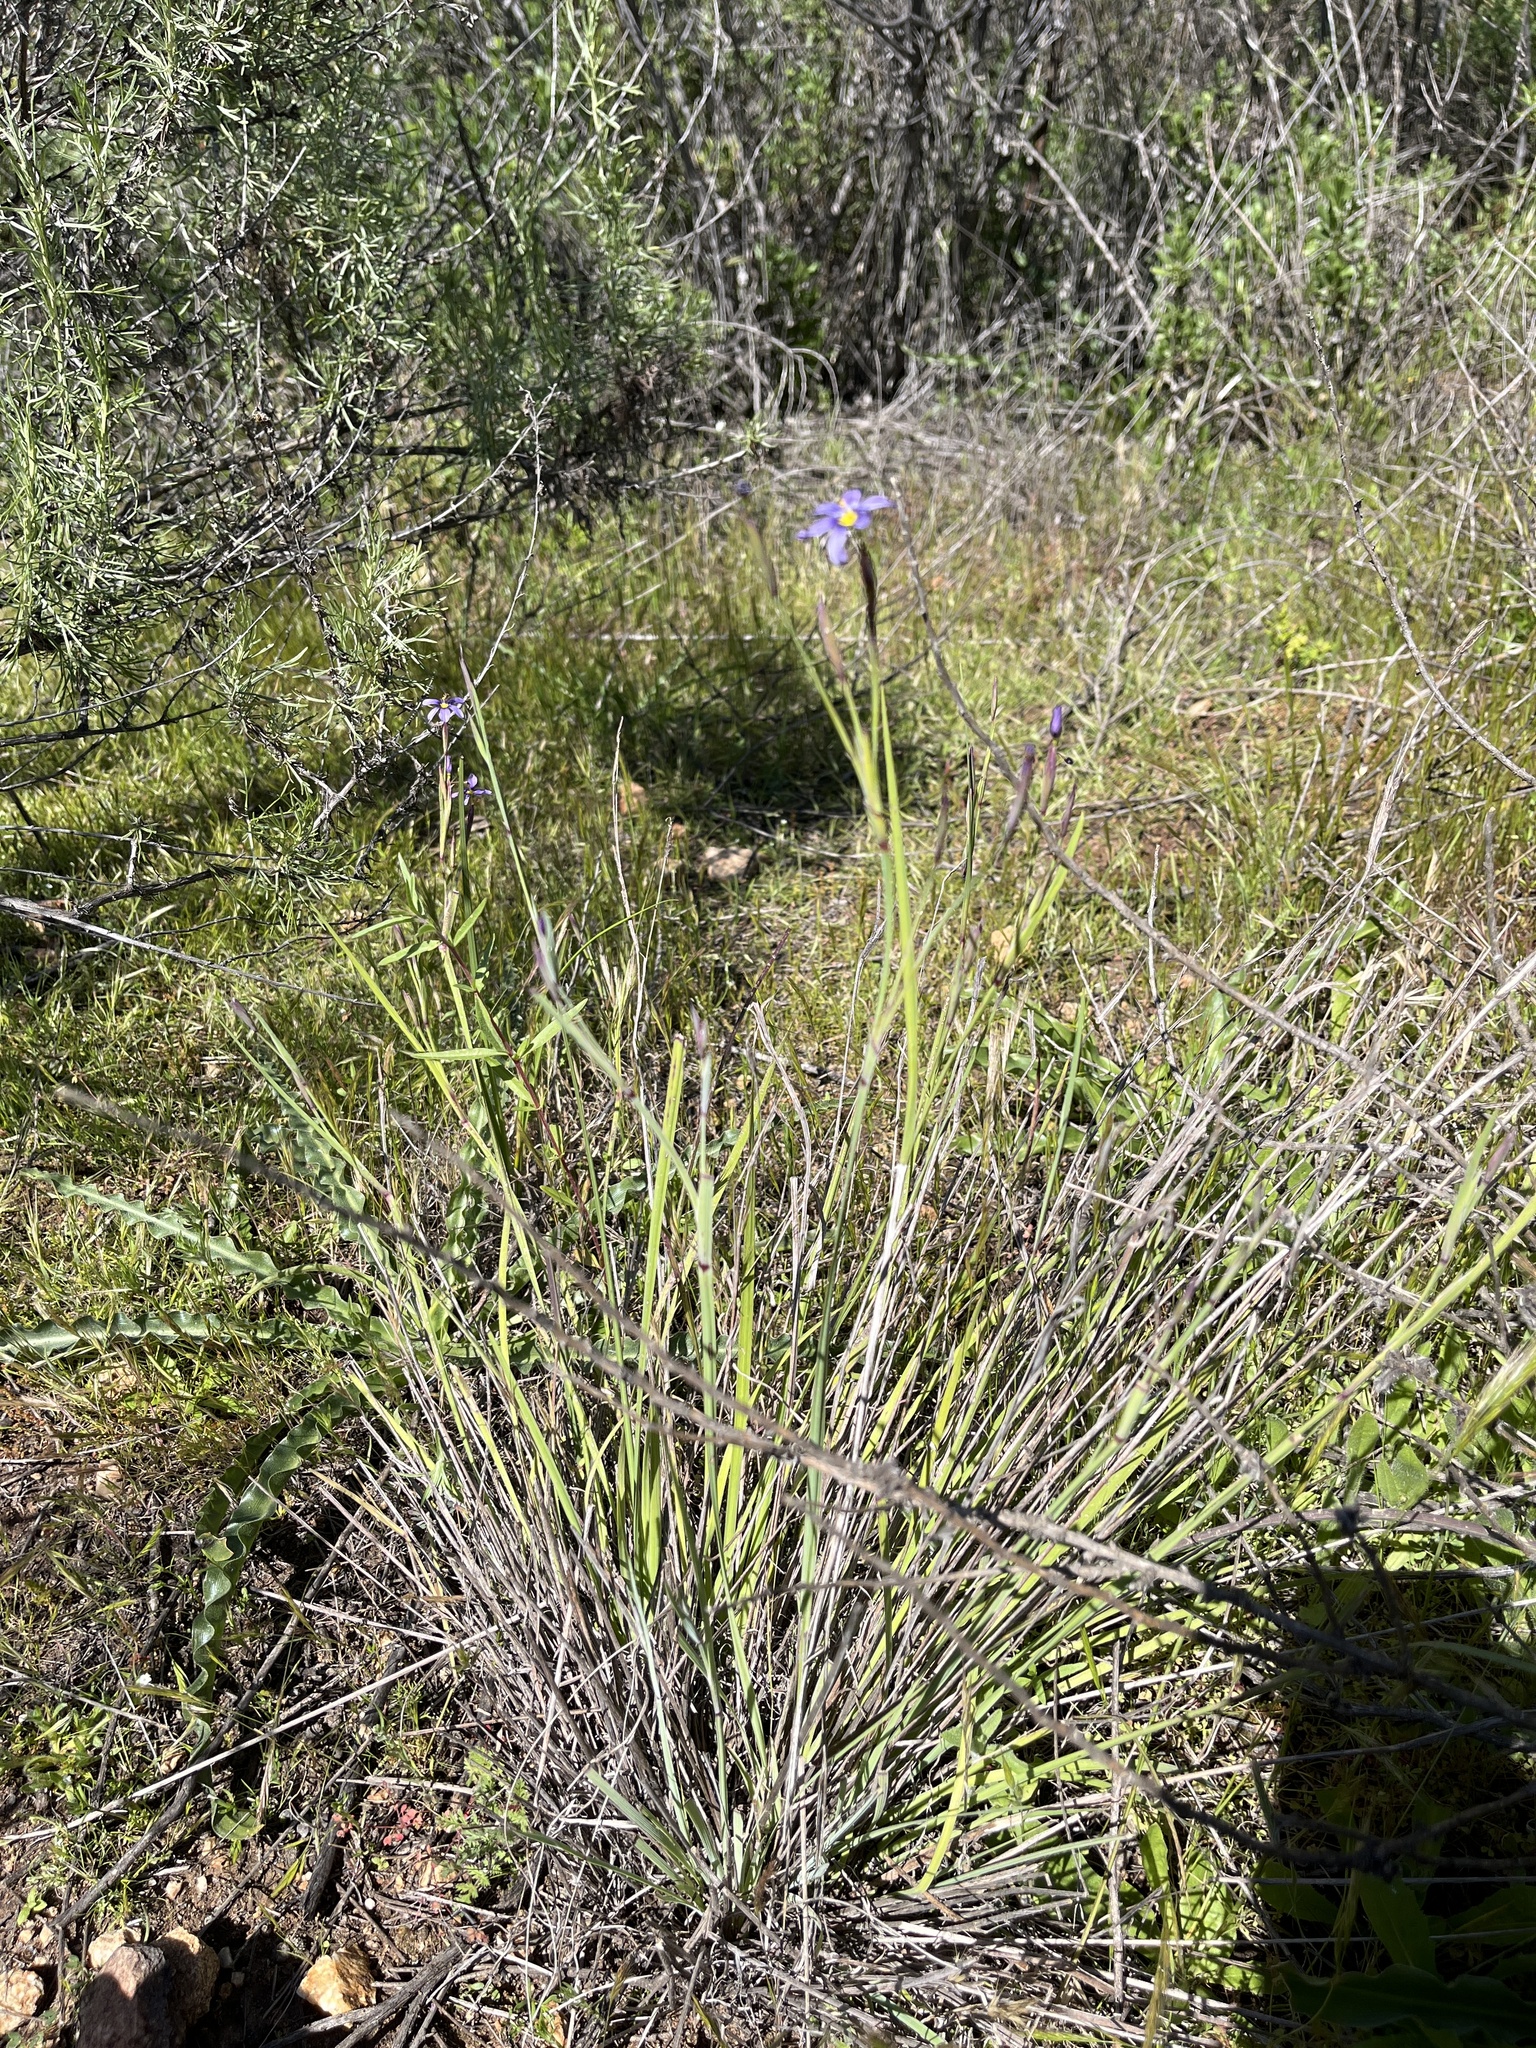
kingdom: Plantae
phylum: Tracheophyta
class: Liliopsida
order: Asparagales
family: Iridaceae
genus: Sisyrinchium
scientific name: Sisyrinchium bellum
